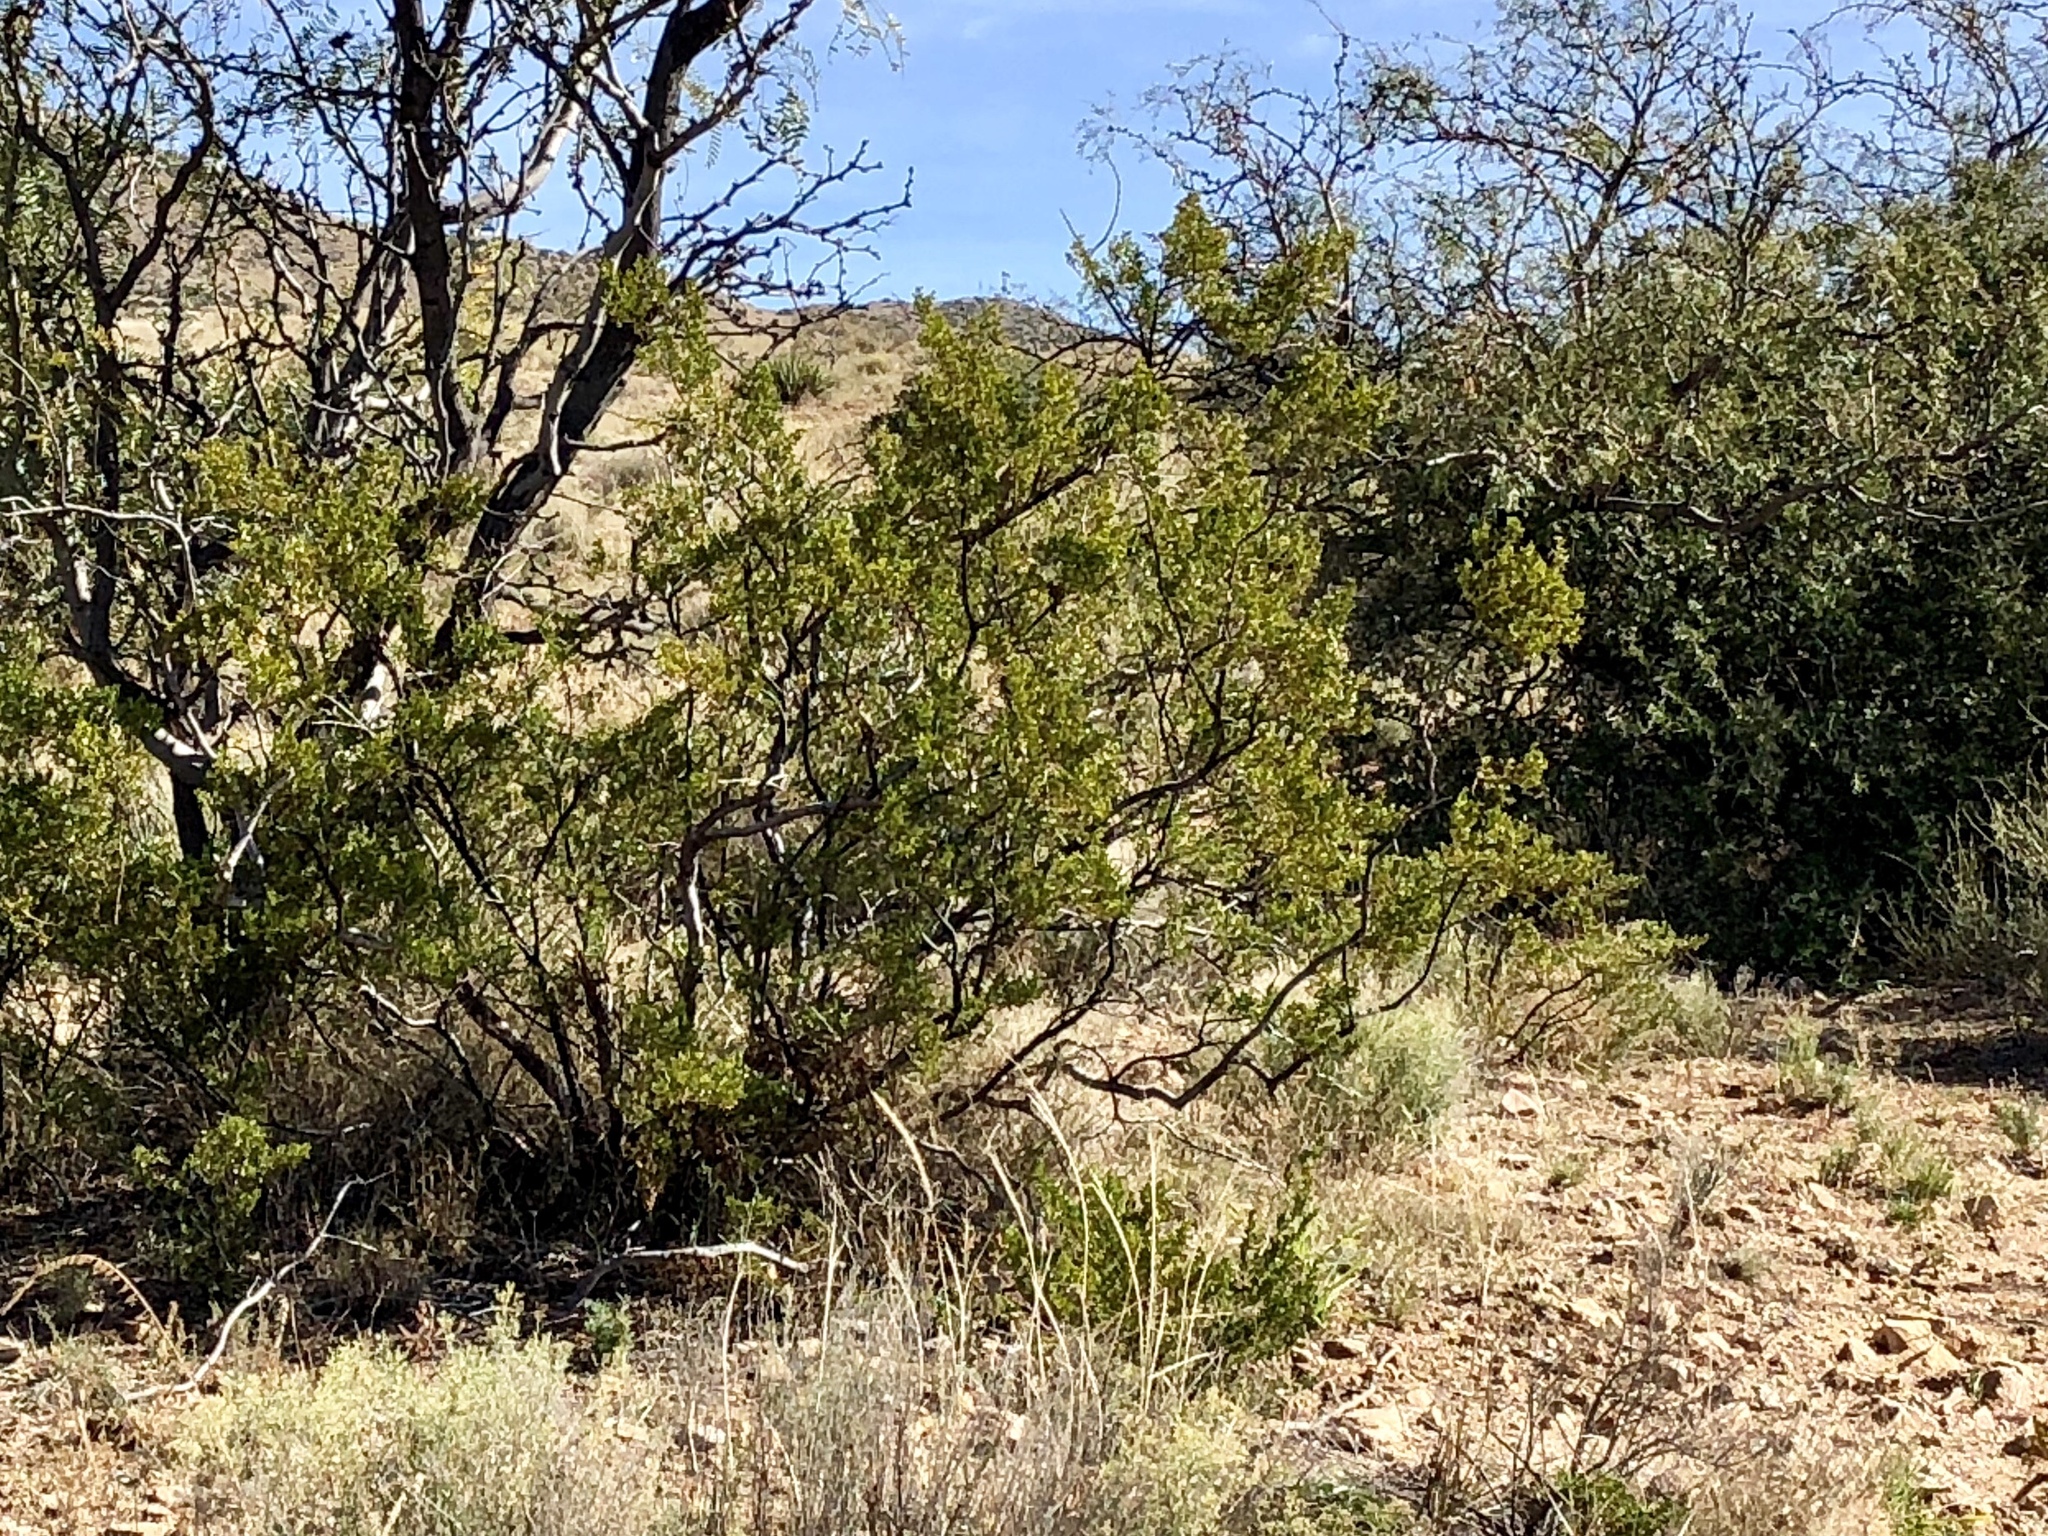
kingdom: Plantae
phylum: Tracheophyta
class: Magnoliopsida
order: Zygophyllales
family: Zygophyllaceae
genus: Larrea
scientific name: Larrea tridentata
